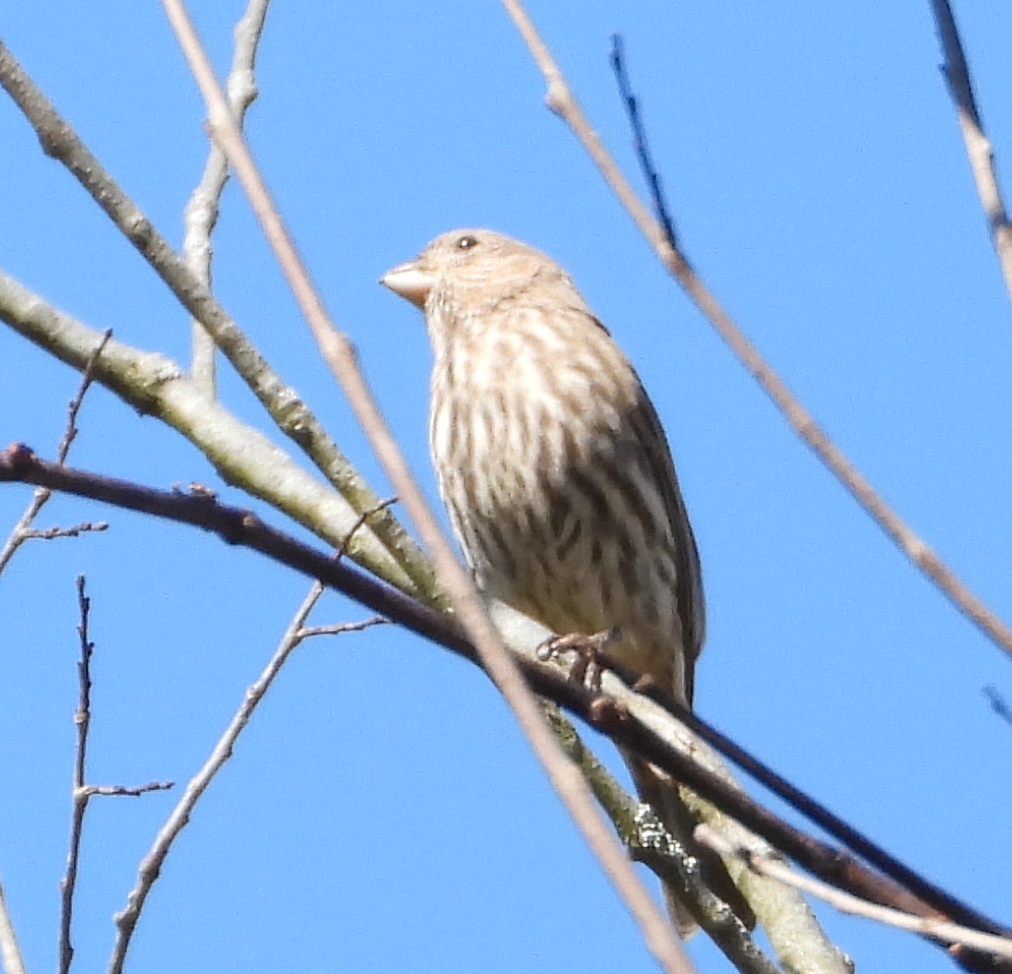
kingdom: Animalia
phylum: Chordata
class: Aves
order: Passeriformes
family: Fringillidae
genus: Haemorhous
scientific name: Haemorhous mexicanus
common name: House finch
